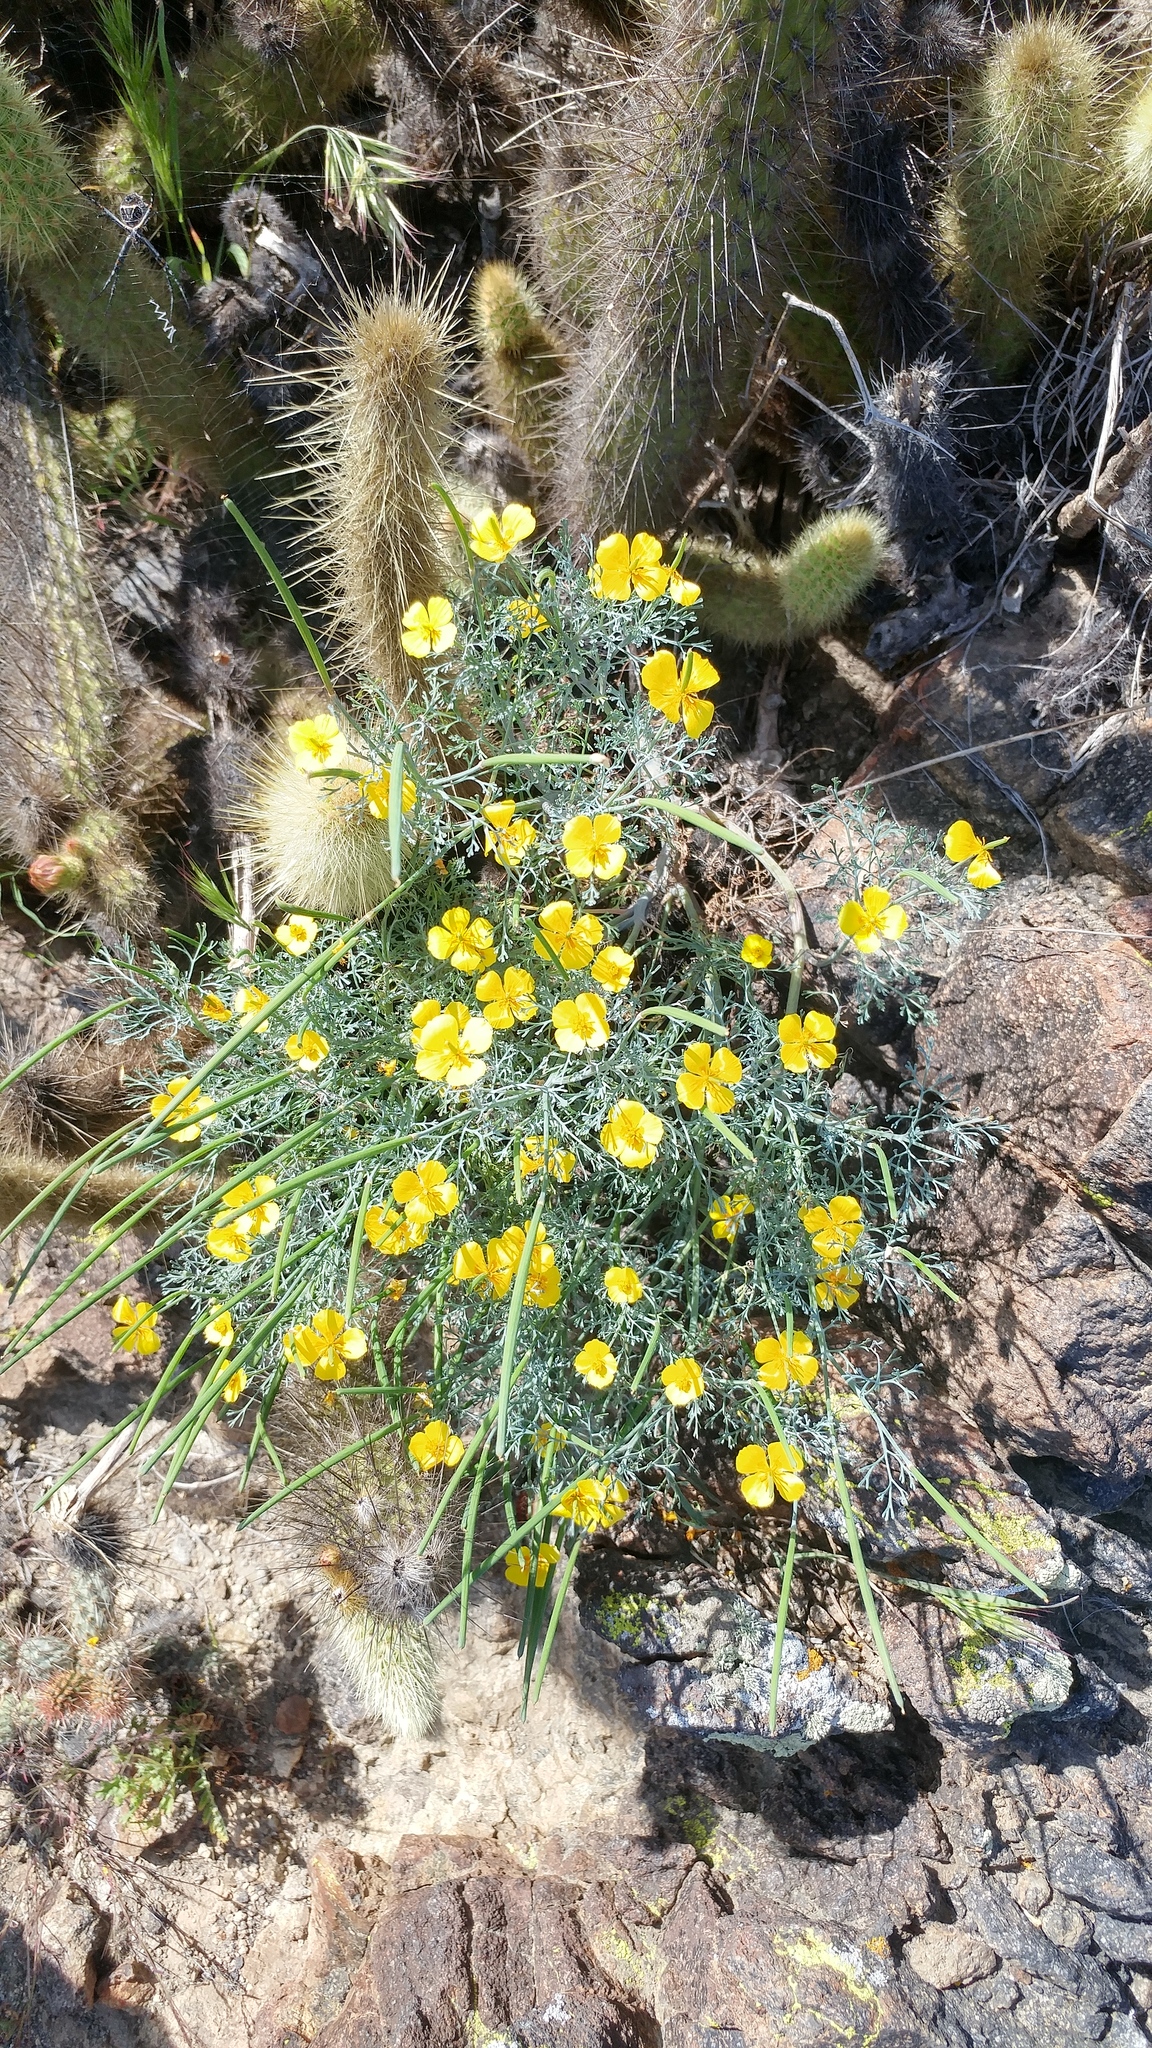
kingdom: Plantae
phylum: Tracheophyta
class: Magnoliopsida
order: Ranunculales
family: Papaveraceae
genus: Eschscholzia
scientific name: Eschscholzia ramosa
